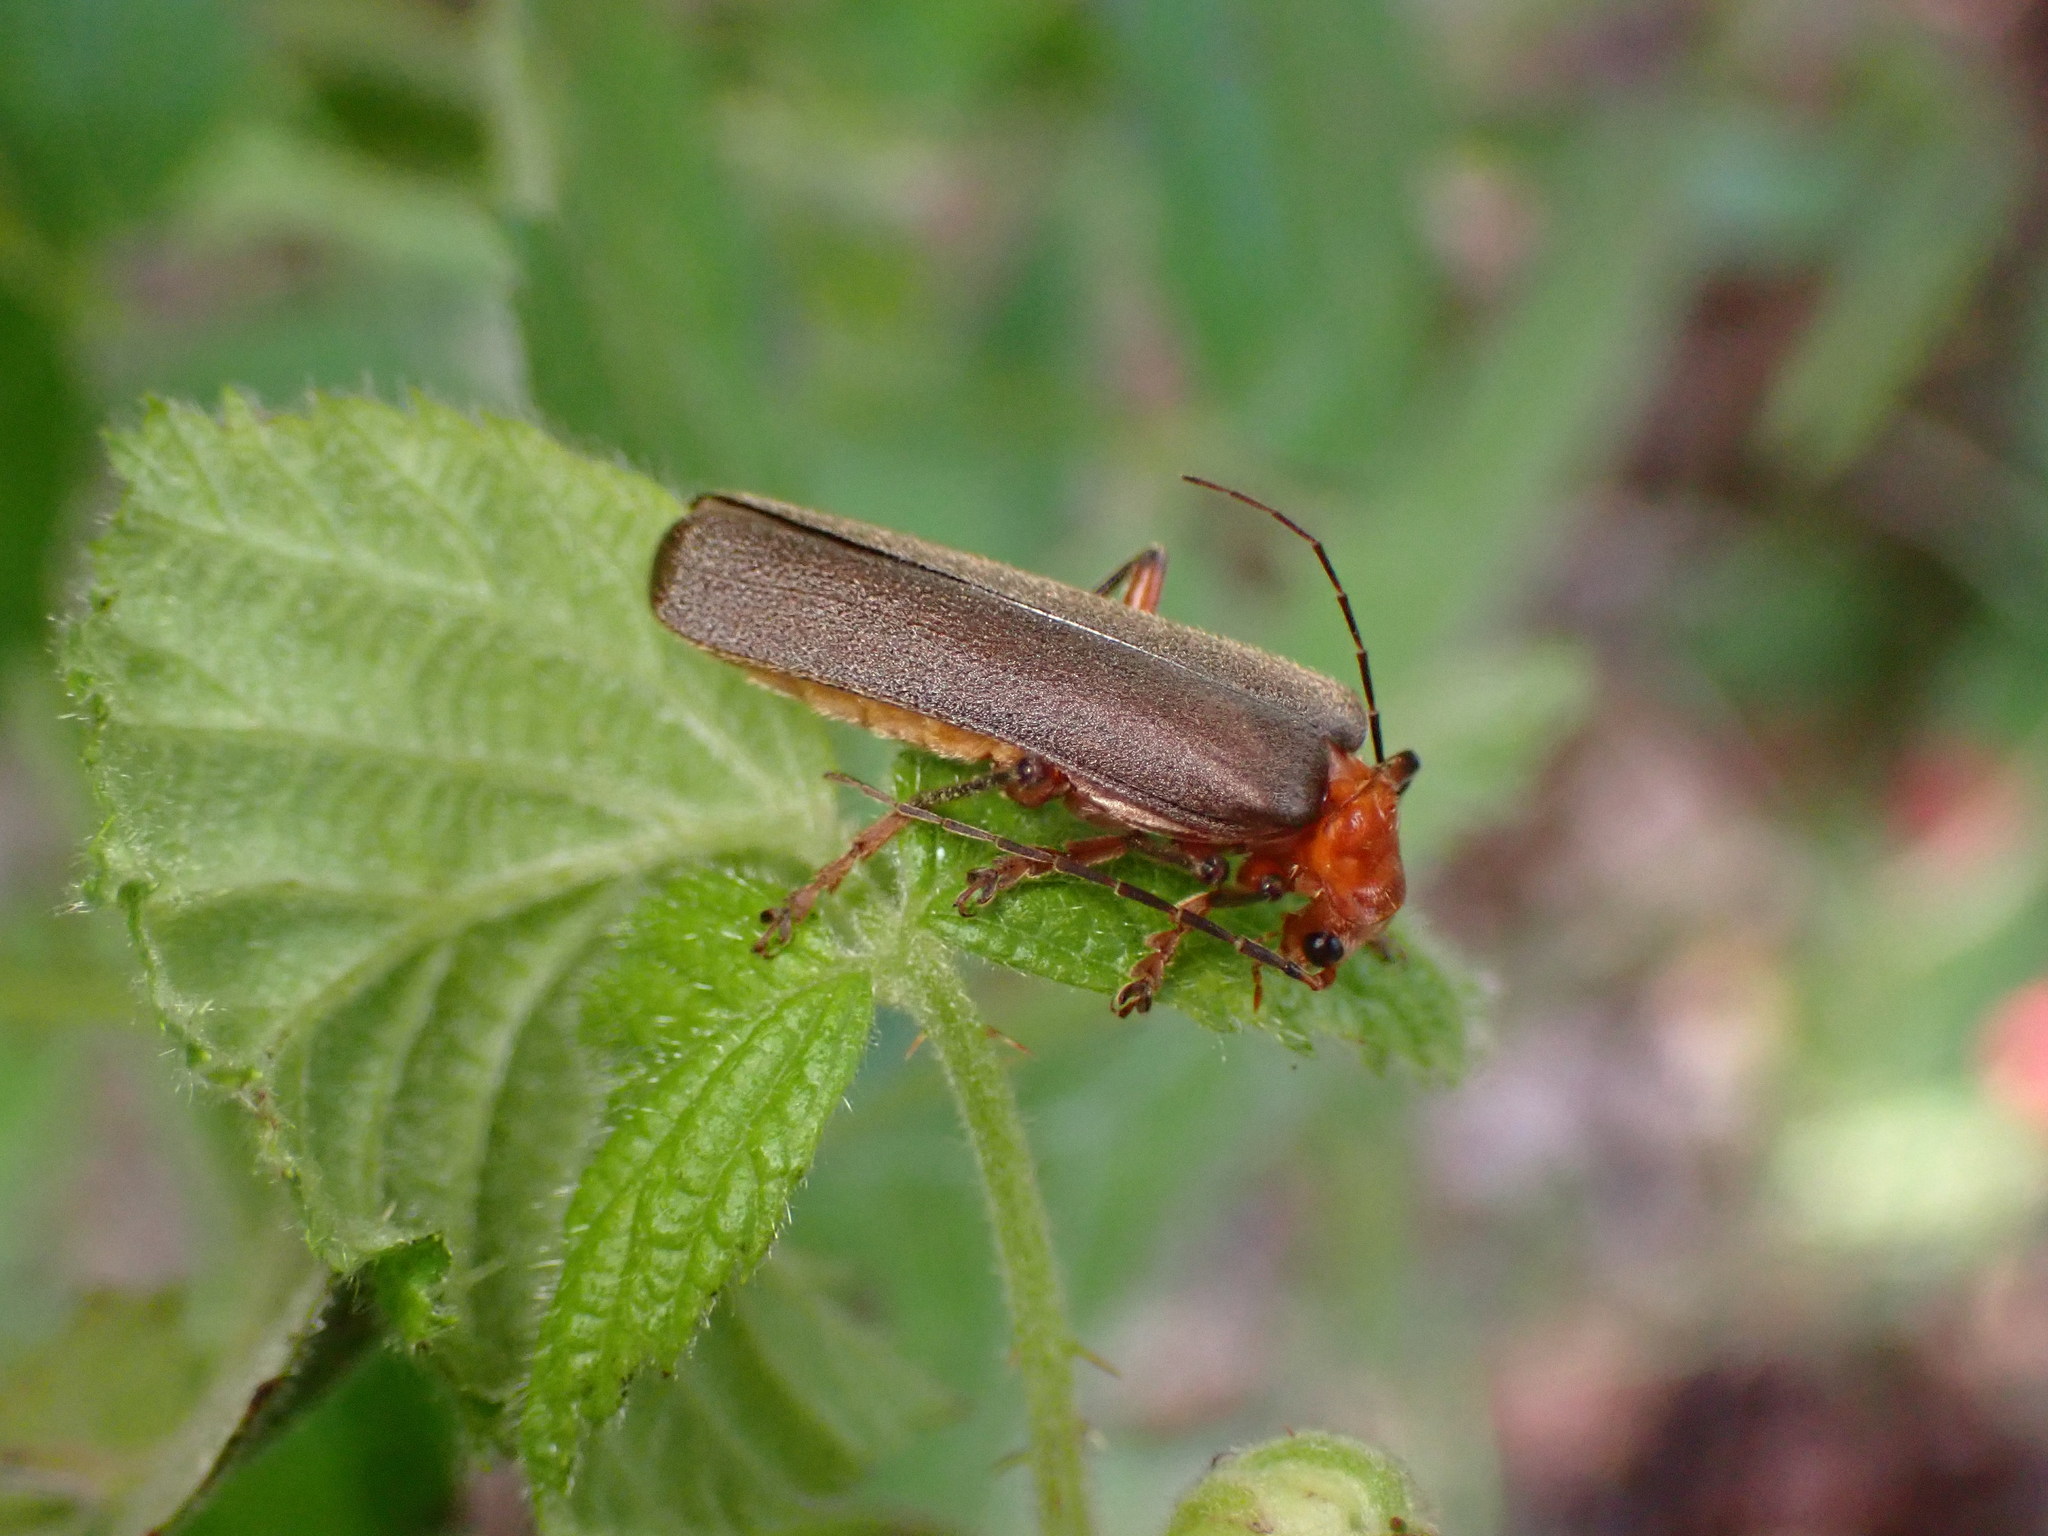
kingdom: Animalia
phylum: Arthropoda
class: Insecta
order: Coleoptera
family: Cantharidae
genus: Pacificanthia
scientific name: Pacificanthia consors
